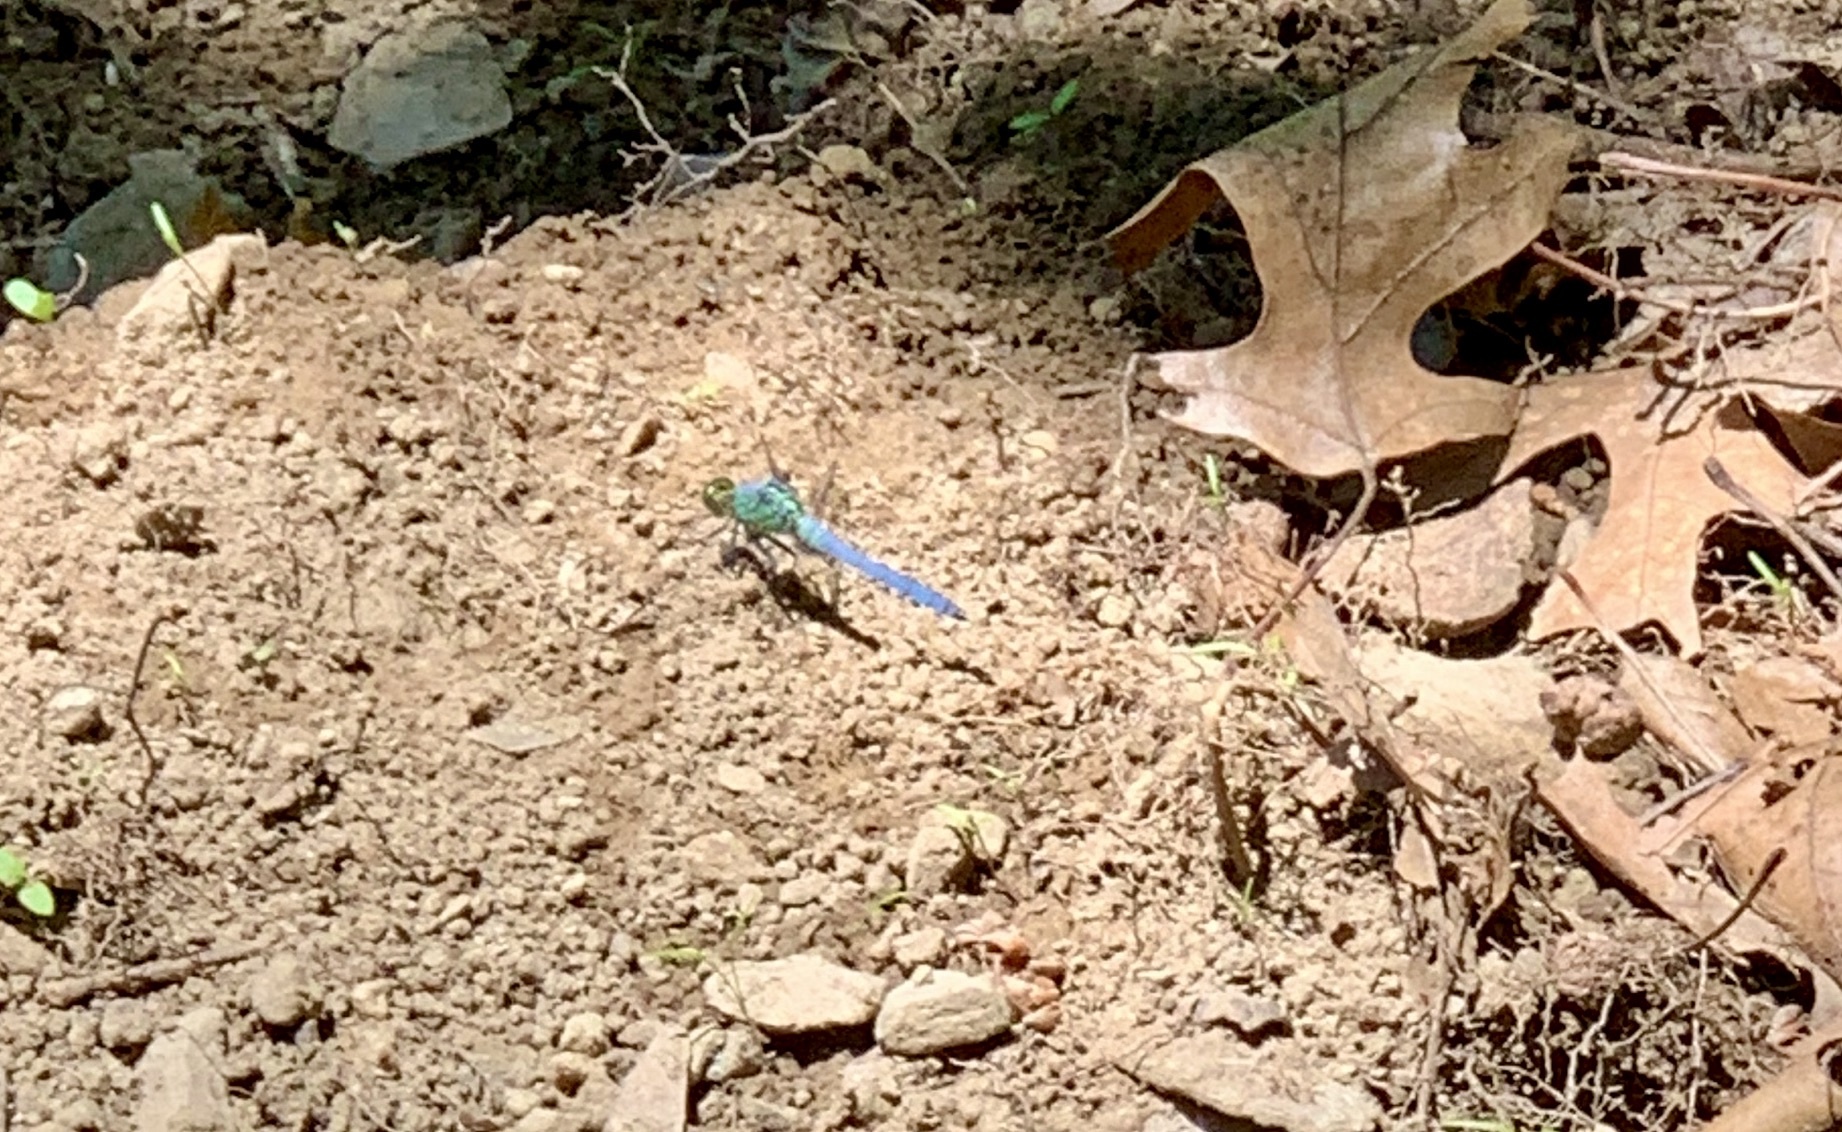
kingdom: Animalia
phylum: Arthropoda
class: Insecta
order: Odonata
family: Libellulidae
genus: Erythemis
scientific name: Erythemis simplicicollis
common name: Eastern pondhawk
